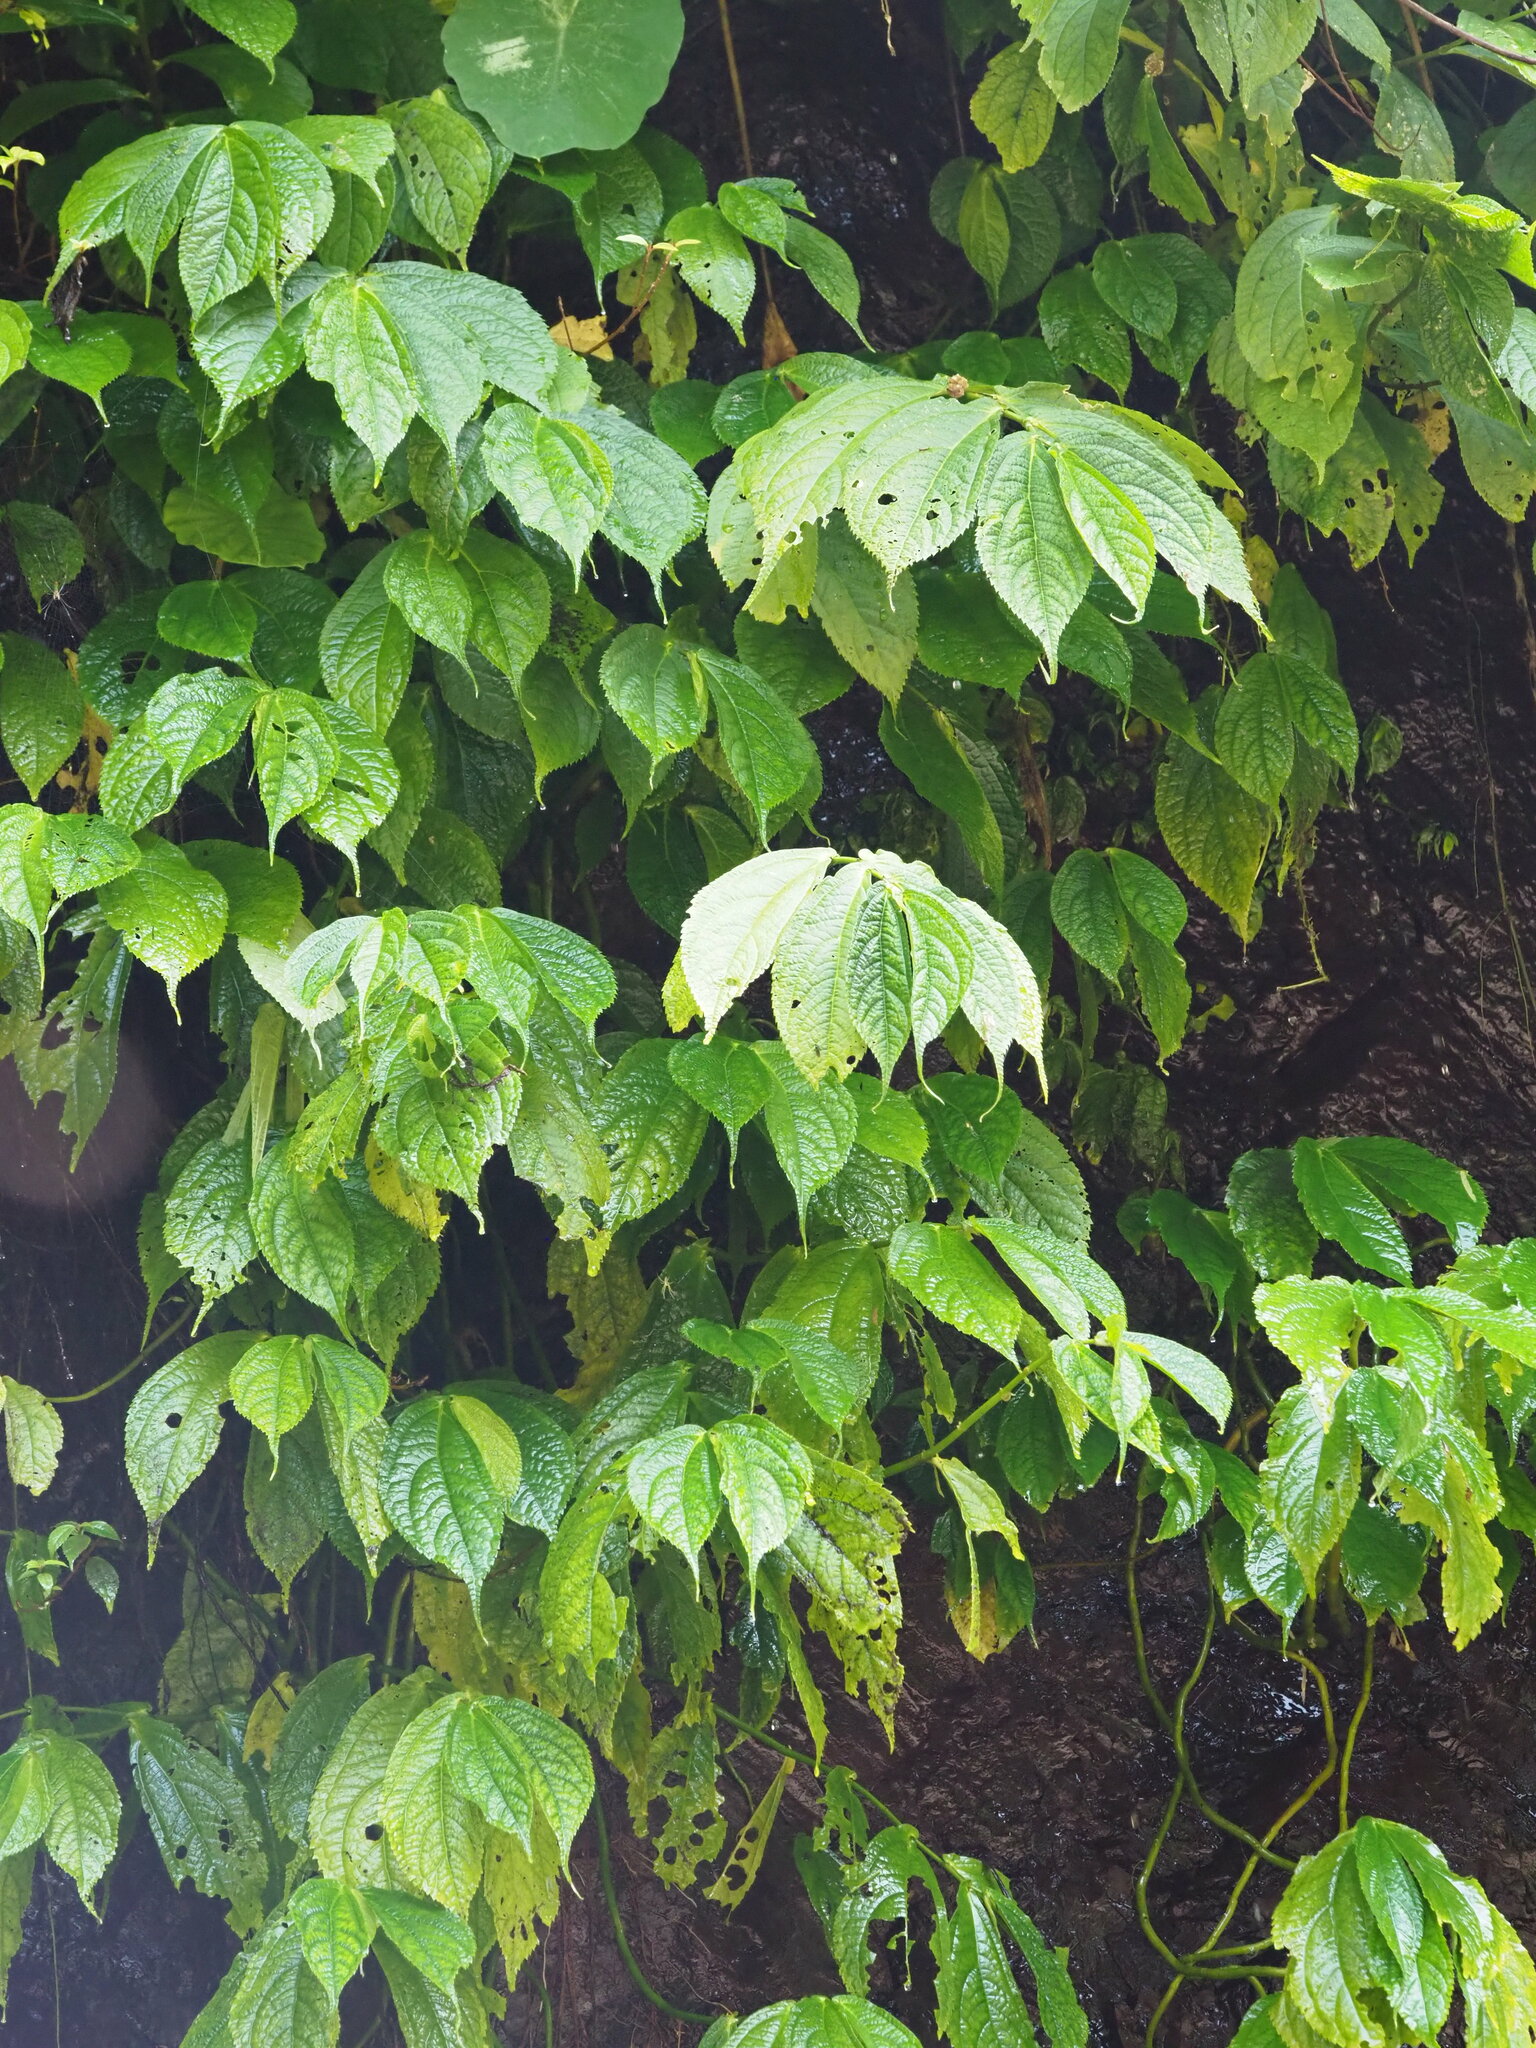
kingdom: Plantae
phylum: Tracheophyta
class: Magnoliopsida
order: Rosales
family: Urticaceae
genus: Elatostema
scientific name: Elatostema platyphyllum
